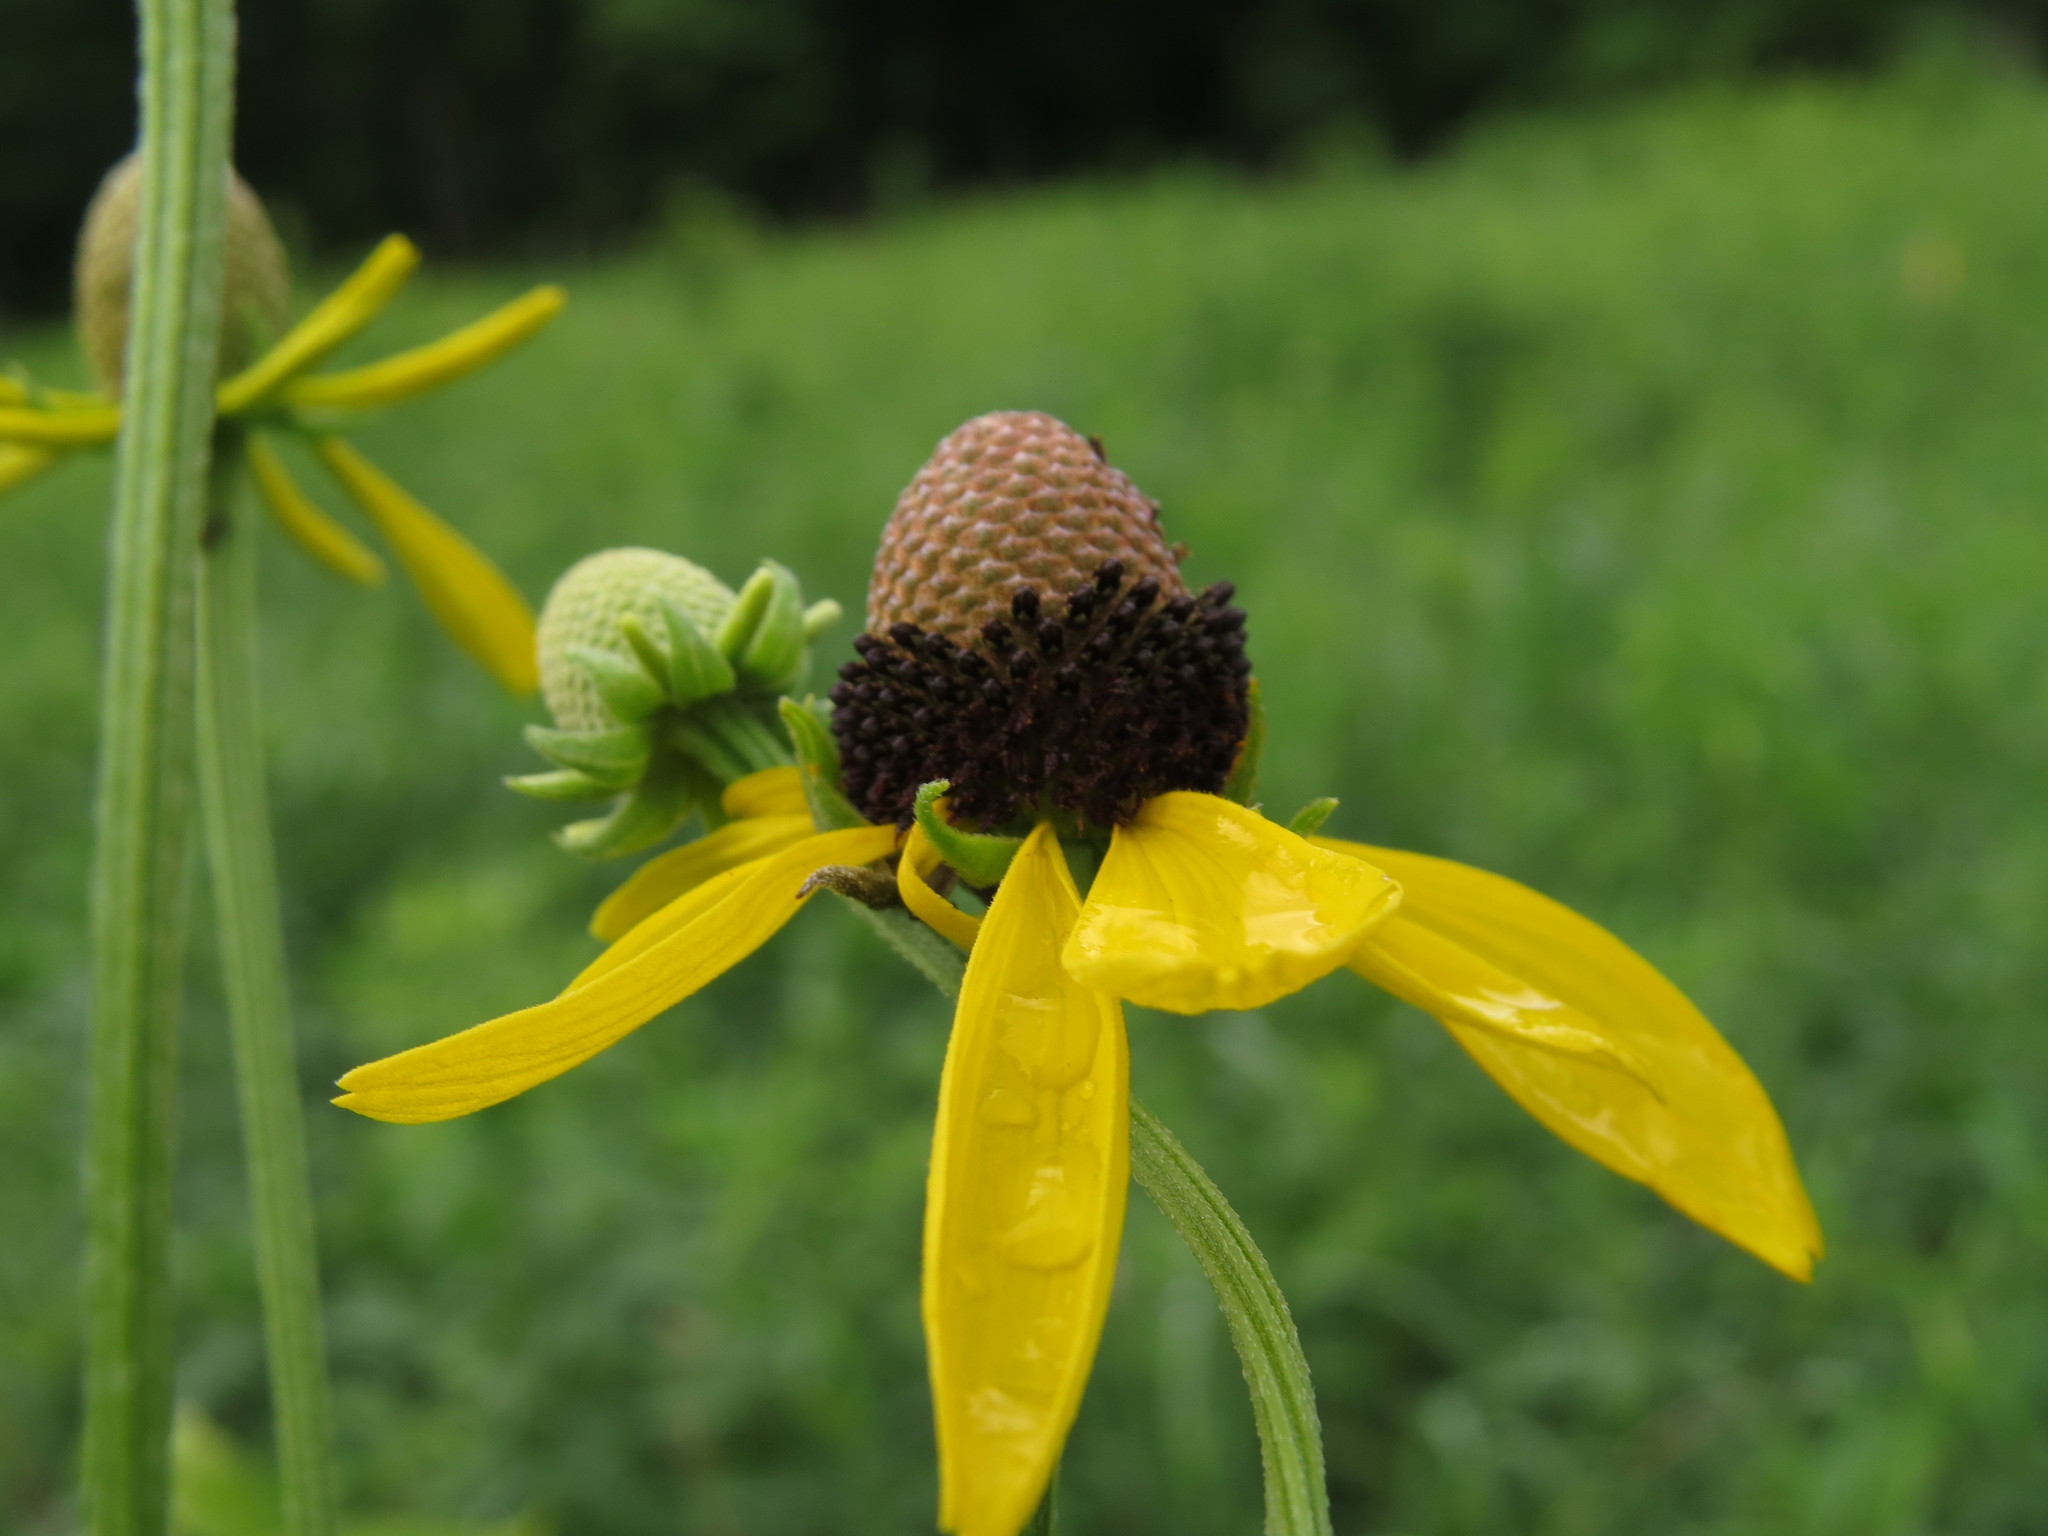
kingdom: Plantae
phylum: Tracheophyta
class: Magnoliopsida
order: Asterales
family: Asteraceae
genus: Ratibida
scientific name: Ratibida pinnata
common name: Drooping prairie-coneflower
